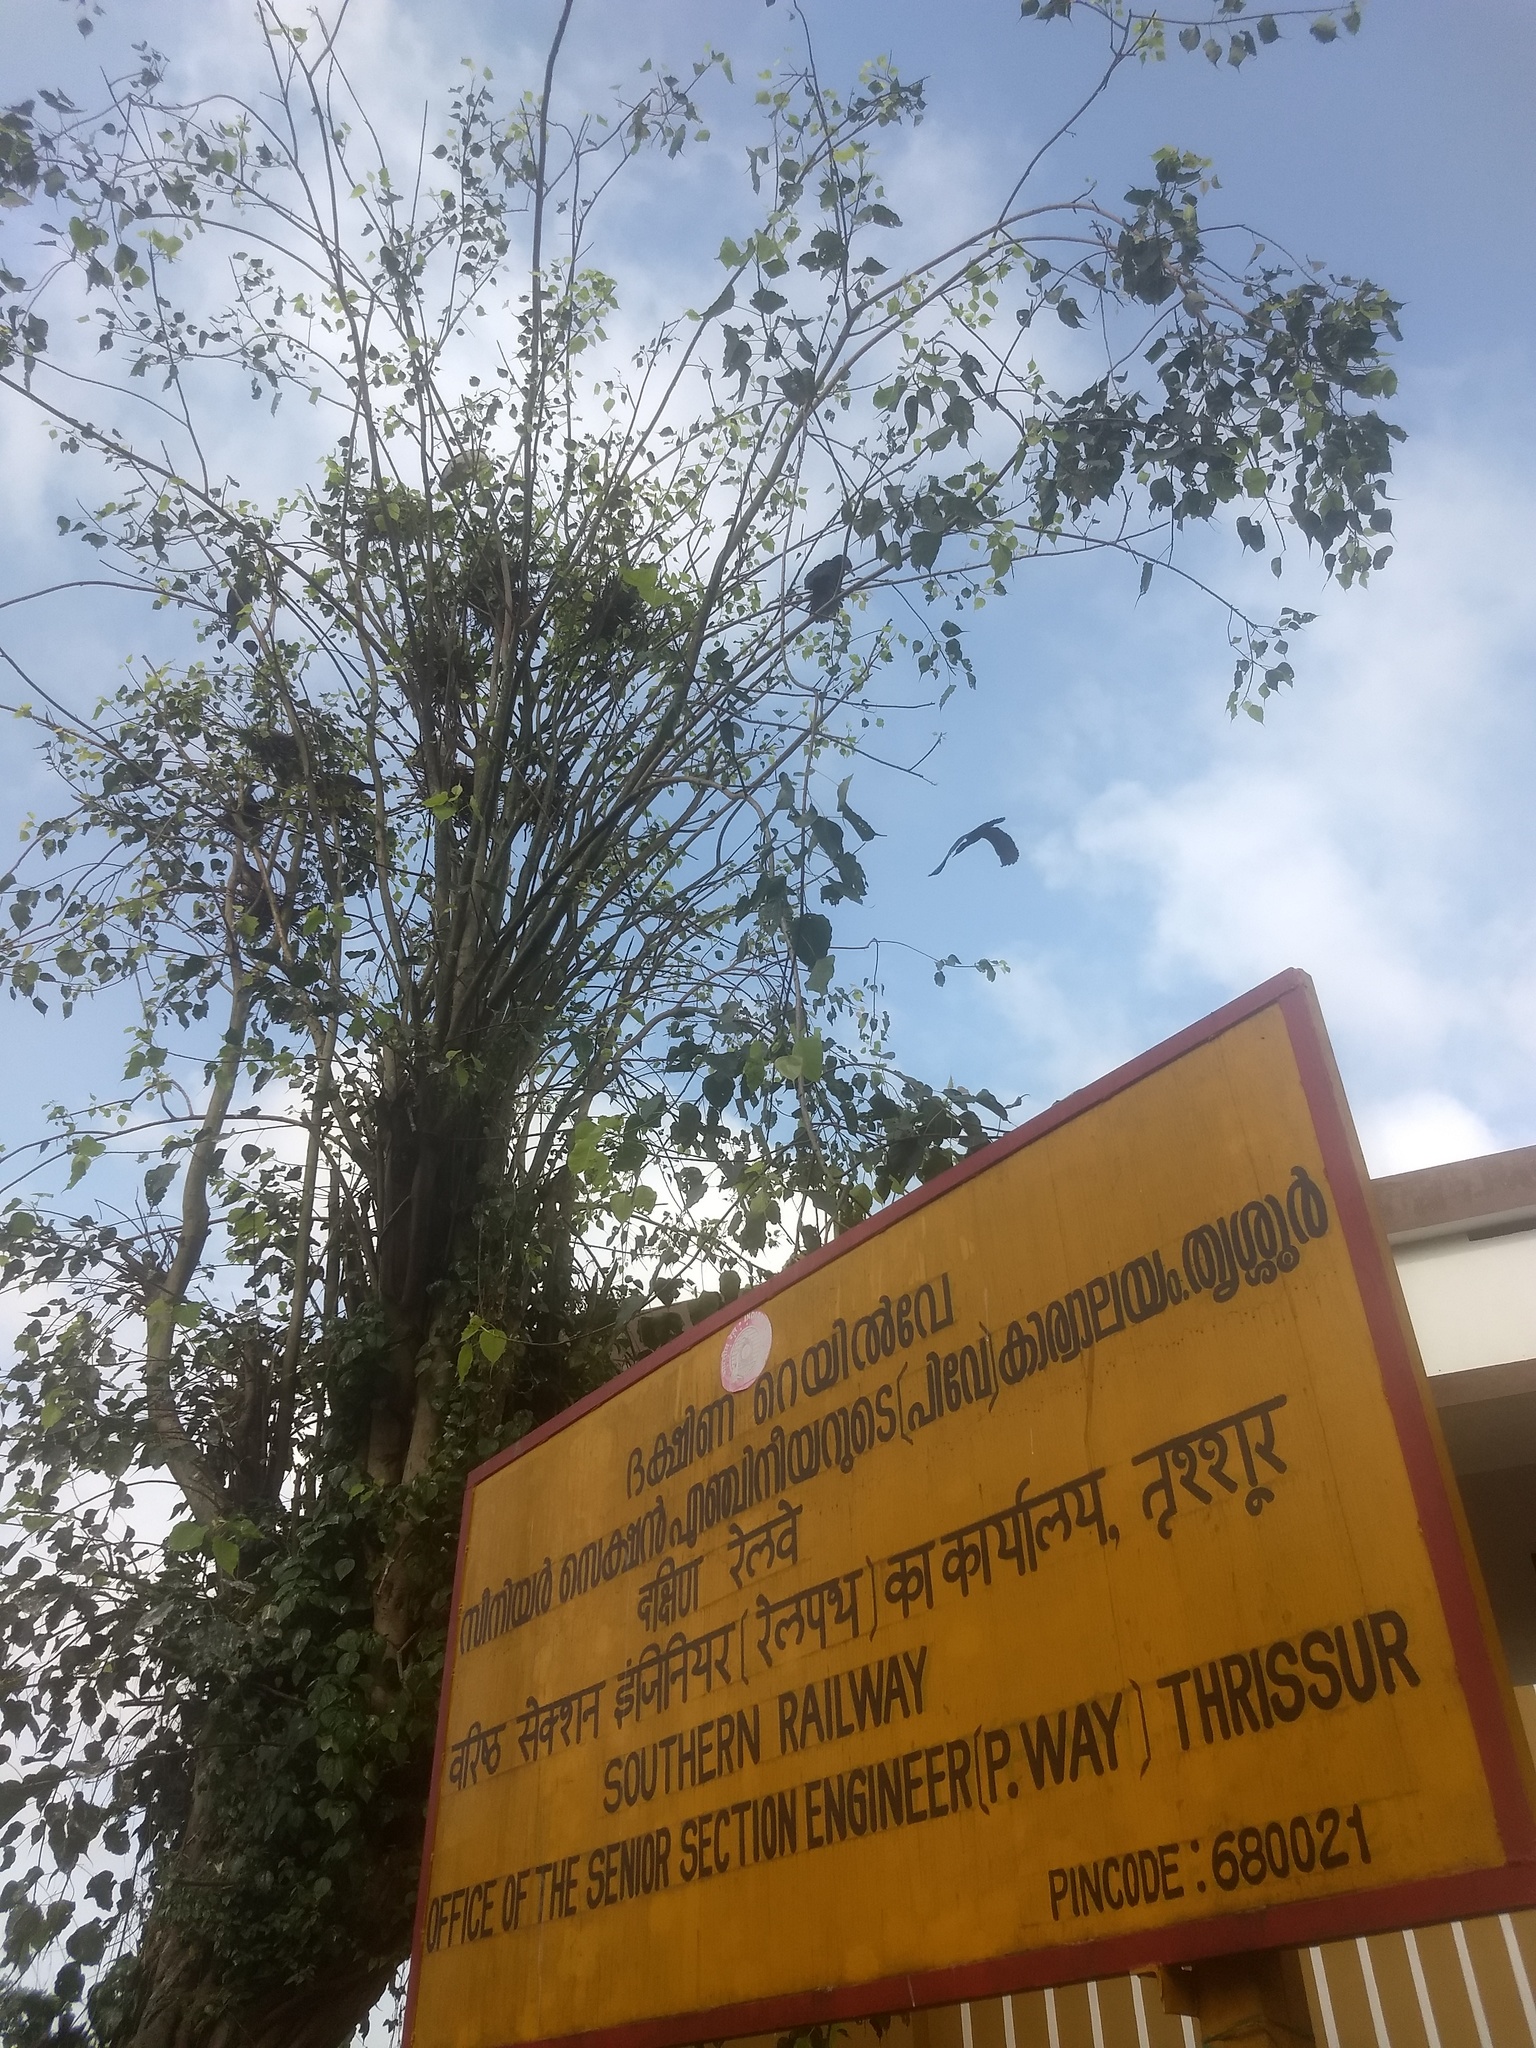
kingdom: Plantae
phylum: Tracheophyta
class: Magnoliopsida
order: Rosales
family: Moraceae
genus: Ficus
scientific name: Ficus religiosa
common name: Bodhi tree
